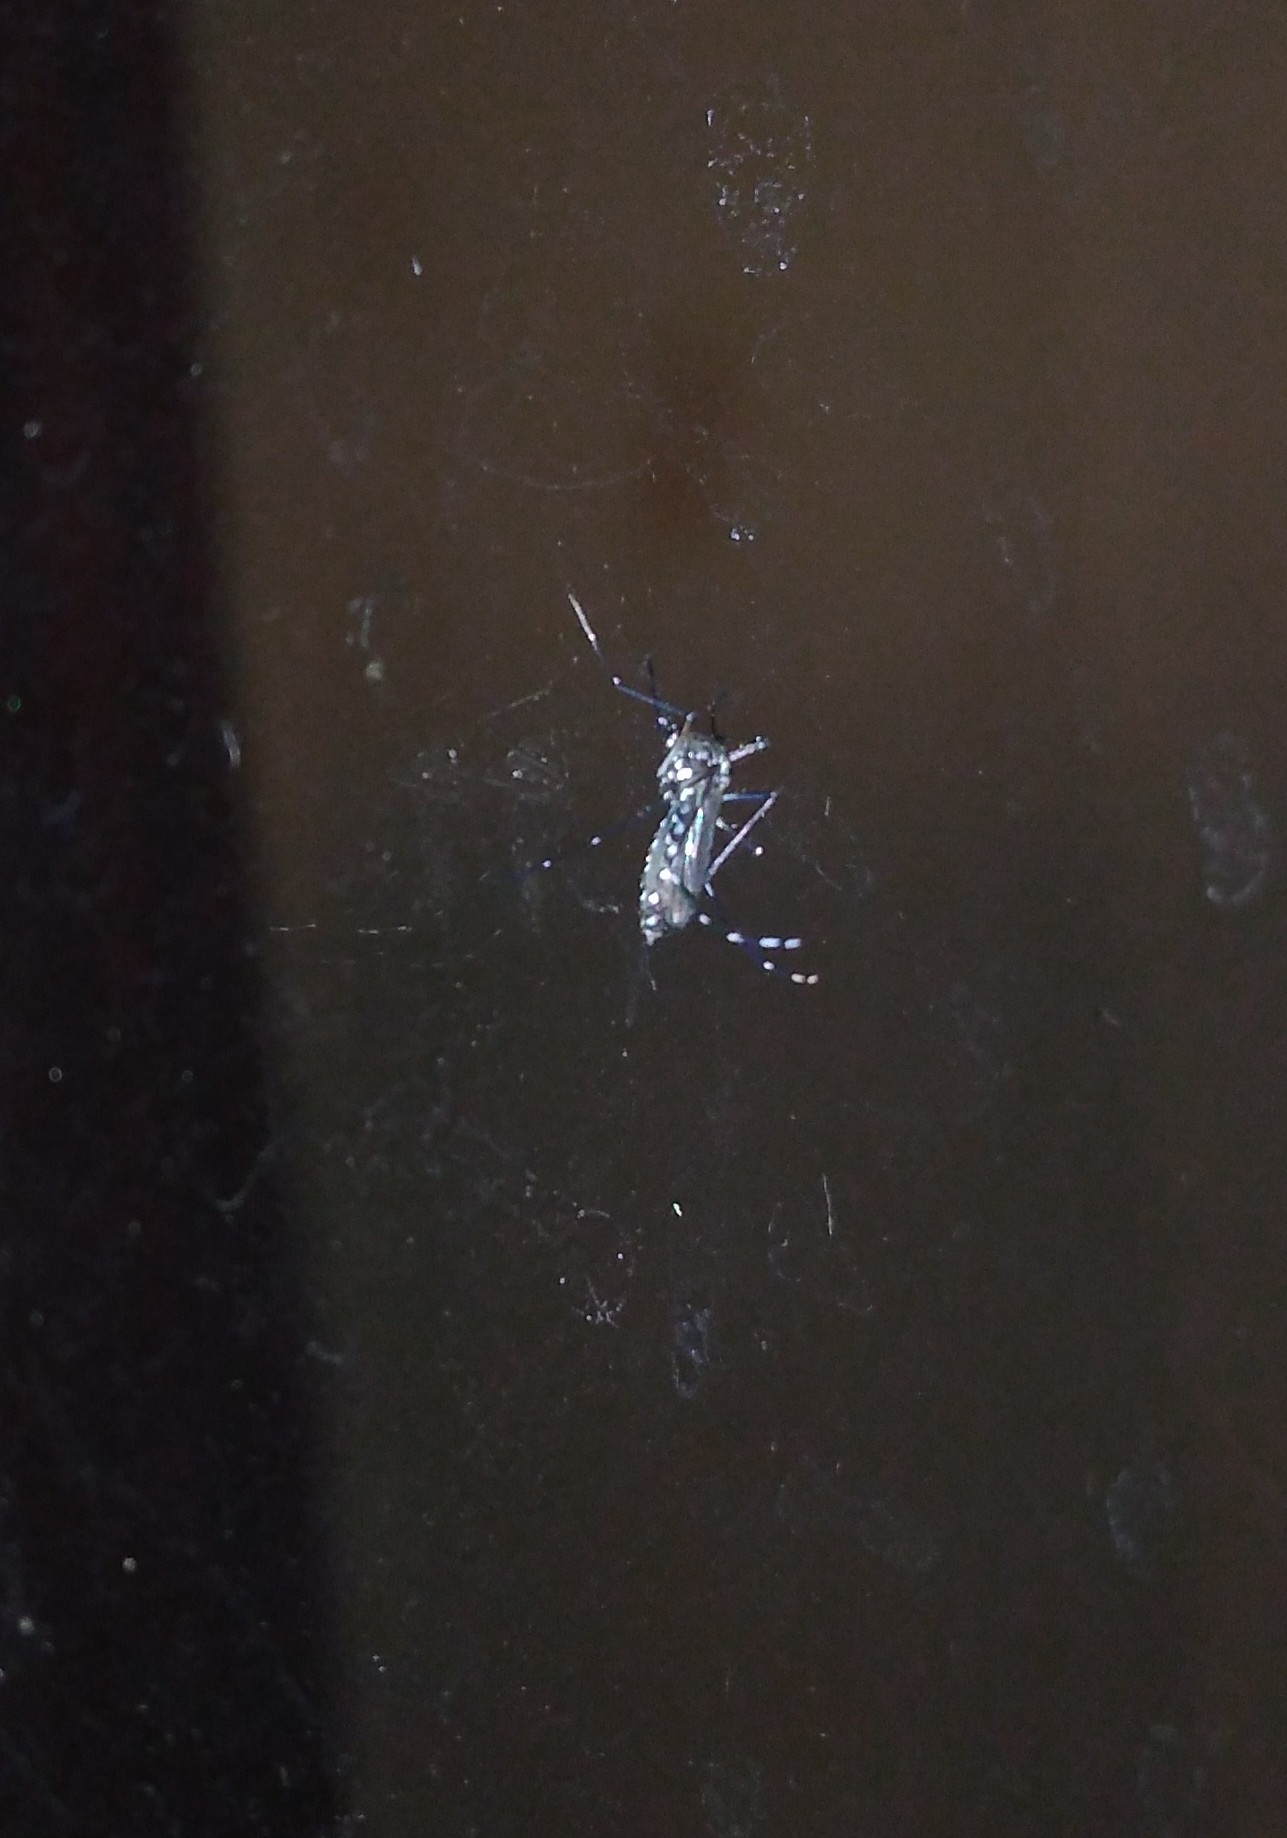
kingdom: Animalia
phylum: Arthropoda
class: Insecta
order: Diptera
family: Culicidae
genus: Aedes
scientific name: Aedes aegypti
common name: Yellow fever mosquito
